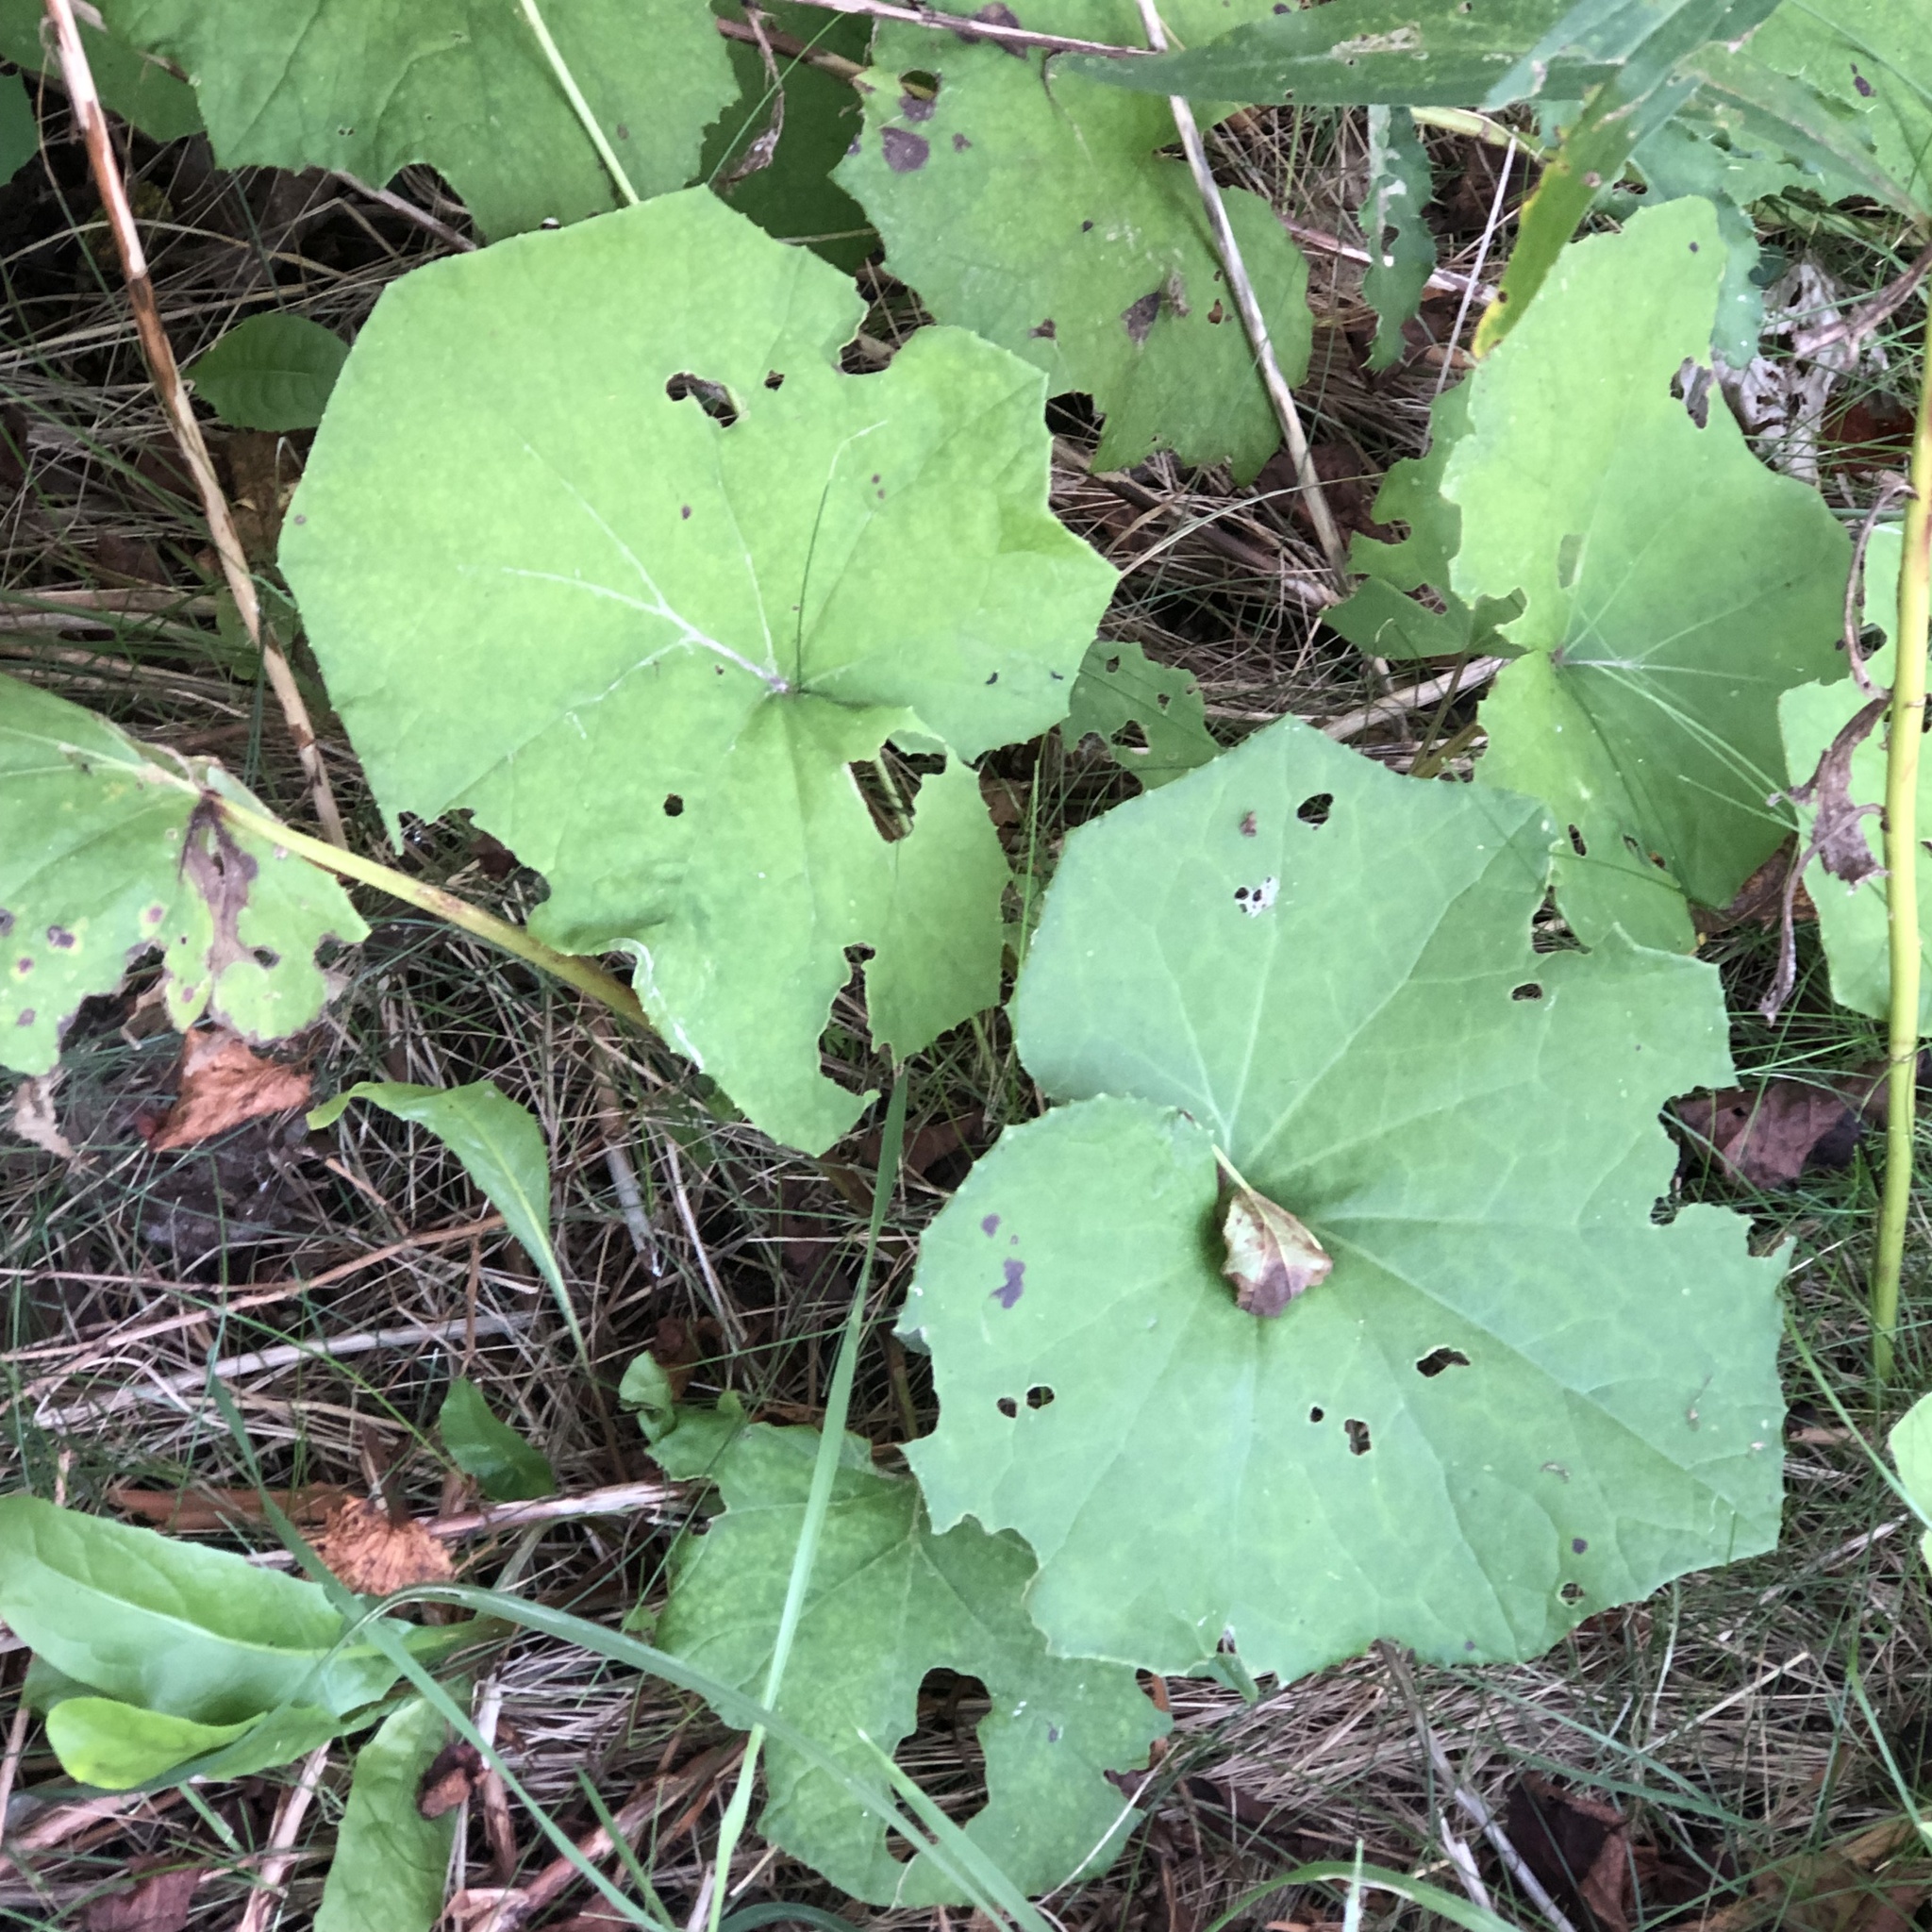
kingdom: Plantae
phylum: Tracheophyta
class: Magnoliopsida
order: Asterales
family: Asteraceae
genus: Tussilago
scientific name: Tussilago farfara
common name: Coltsfoot
